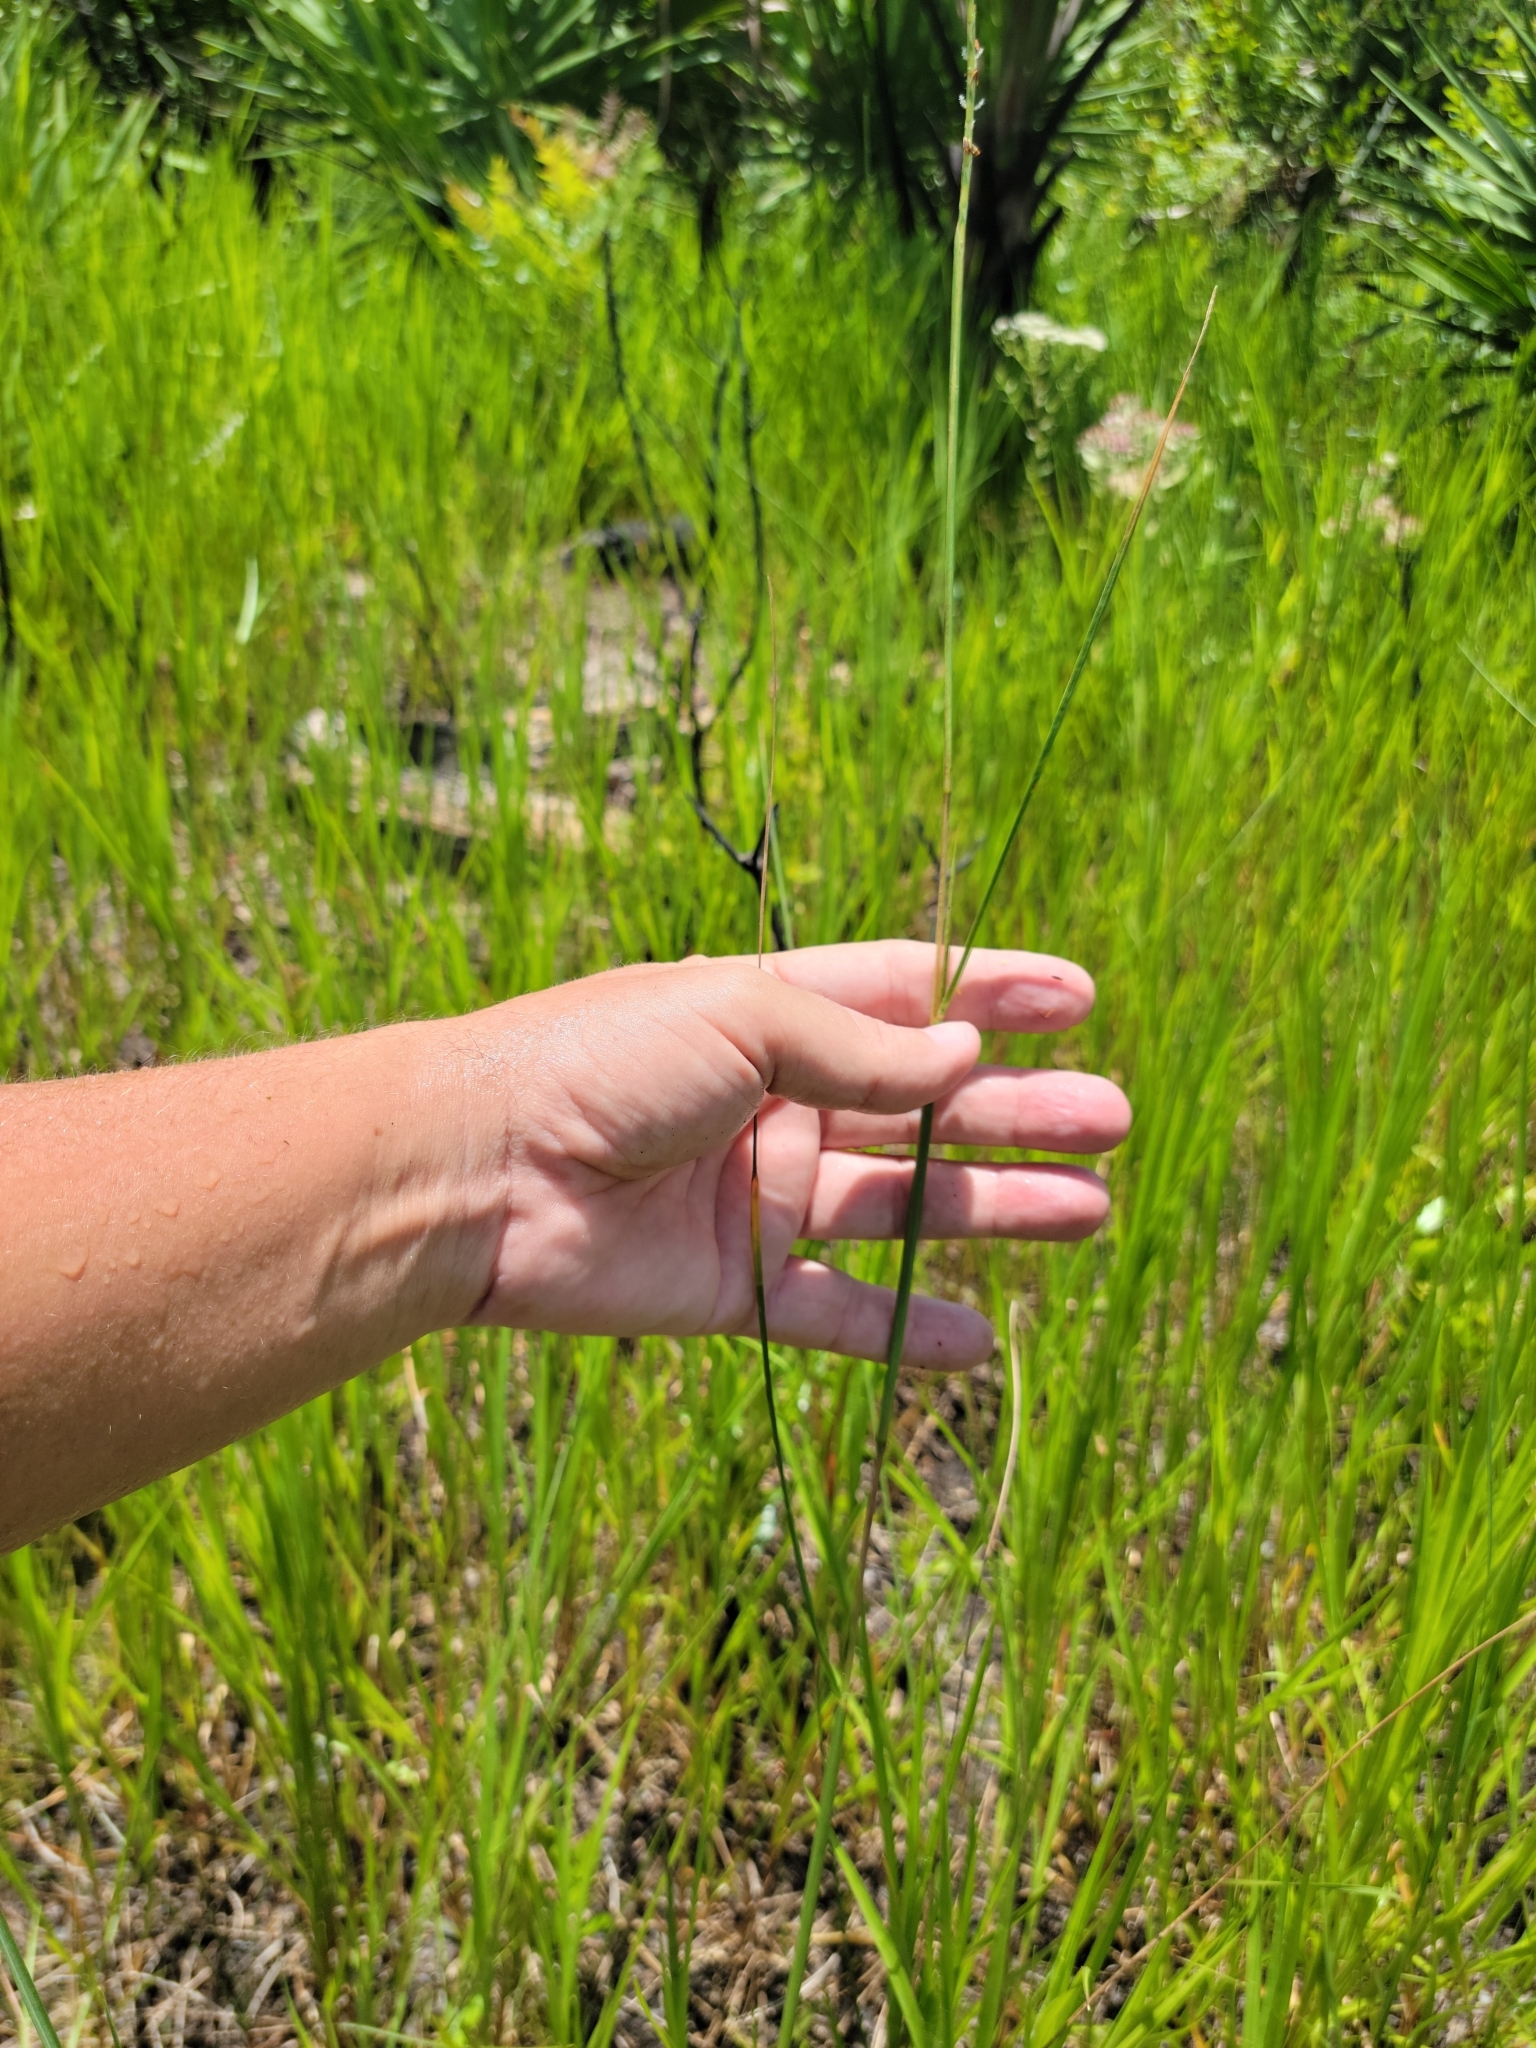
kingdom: Plantae
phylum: Tracheophyta
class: Liliopsida
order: Poales
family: Poaceae
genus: Elionurus
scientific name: Elionurus tripsacoides
